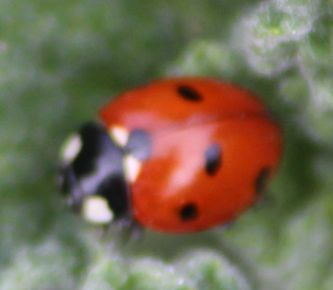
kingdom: Animalia
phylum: Arthropoda
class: Insecta
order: Coleoptera
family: Coccinellidae
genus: Coccinella
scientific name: Coccinella septempunctata
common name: Sevenspotted lady beetle
